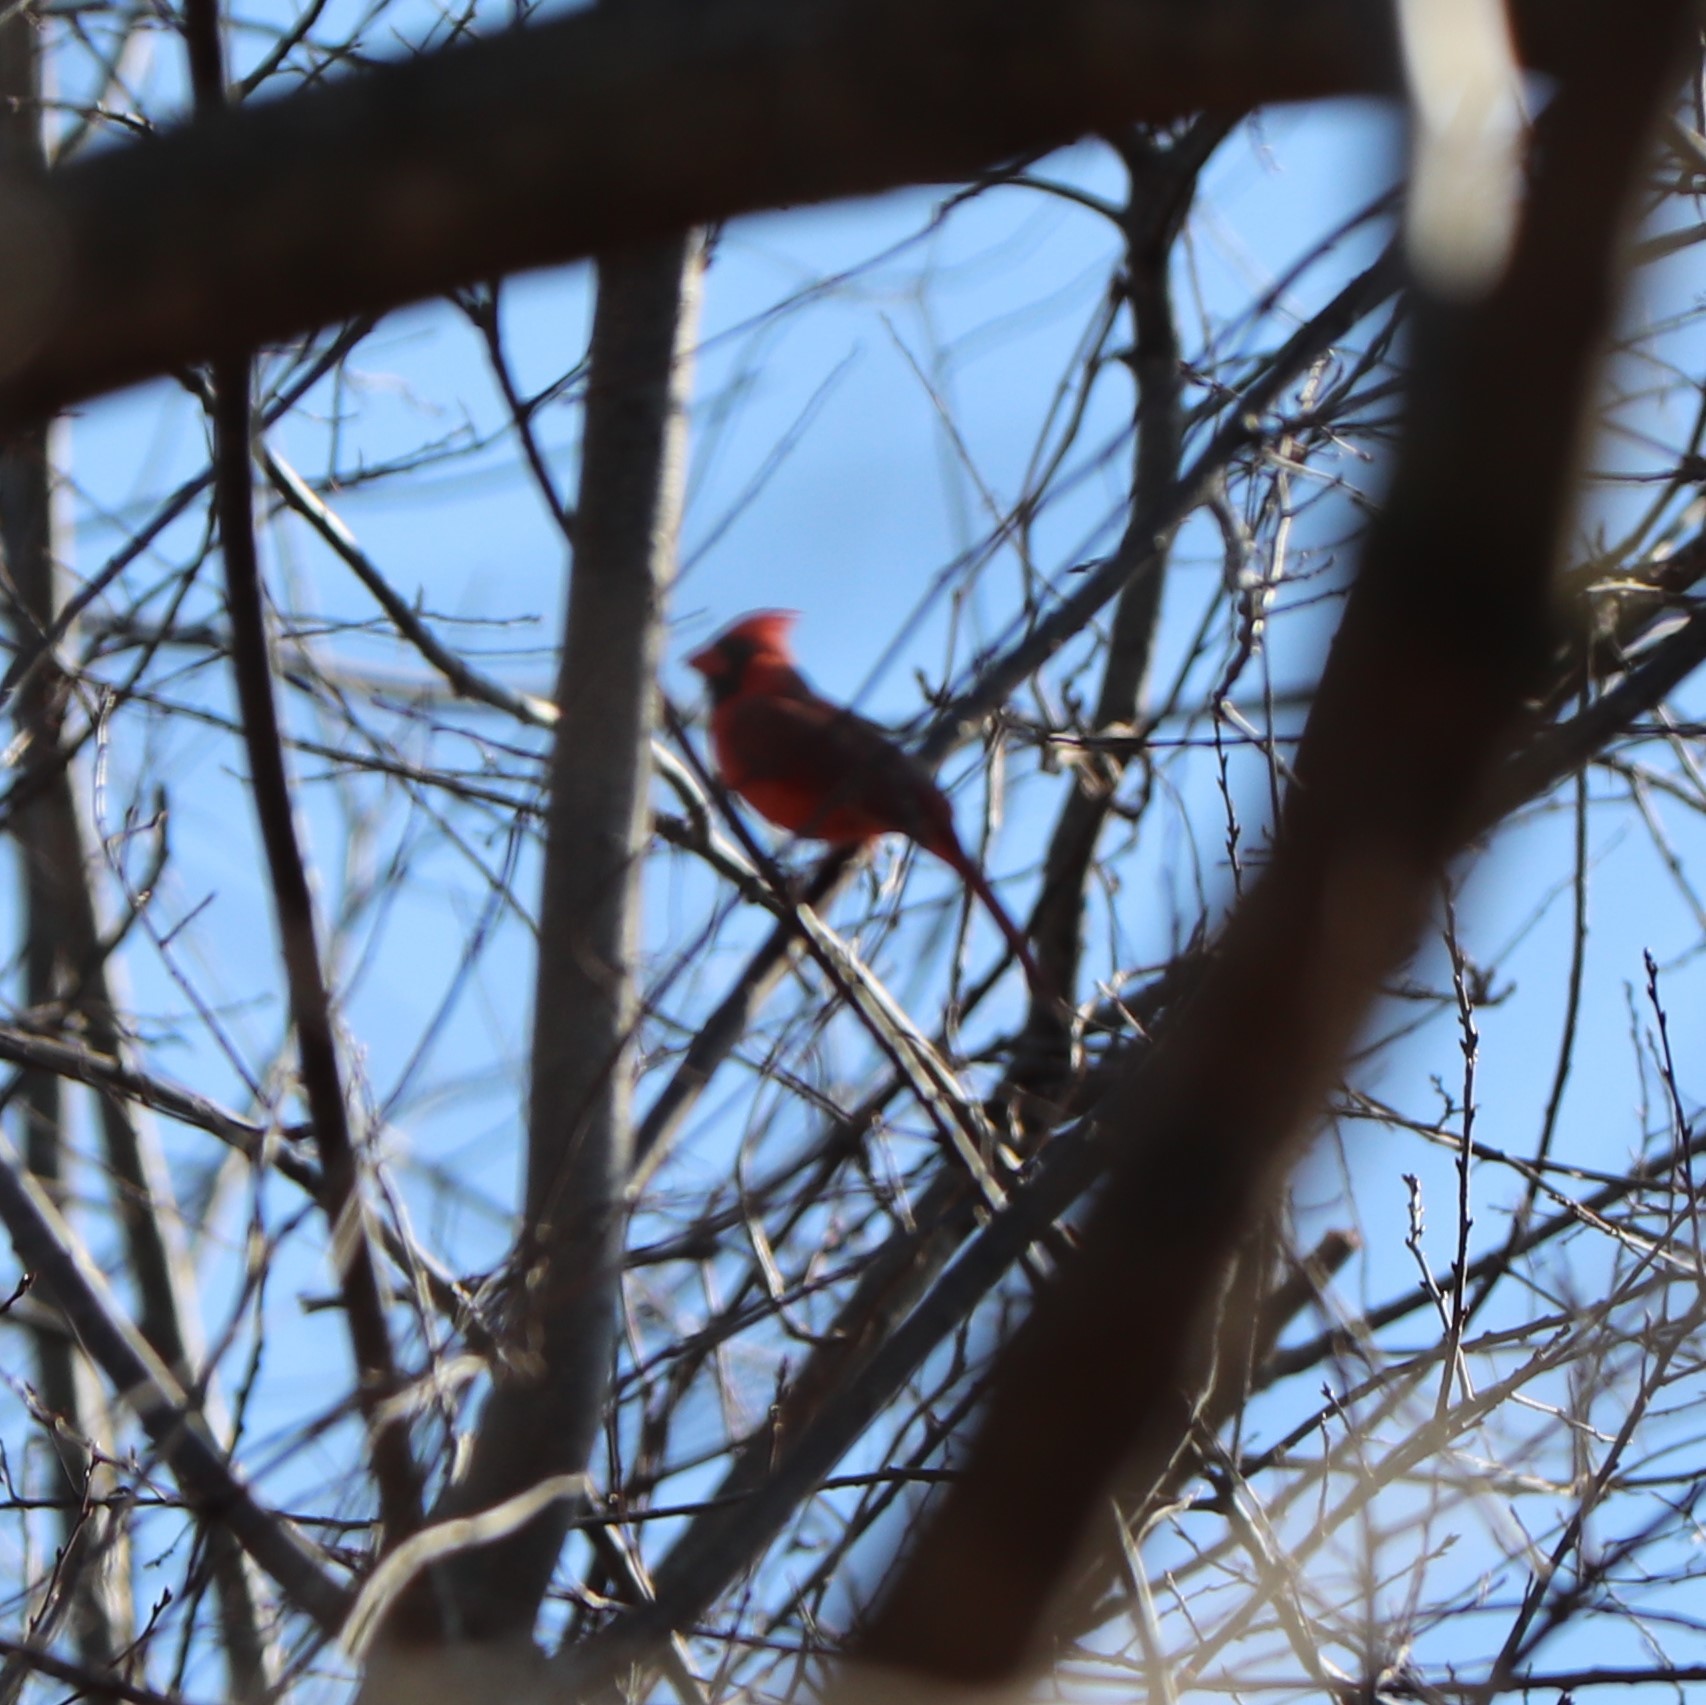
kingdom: Animalia
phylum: Chordata
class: Aves
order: Passeriformes
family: Cardinalidae
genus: Cardinalis
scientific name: Cardinalis cardinalis
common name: Northern cardinal
